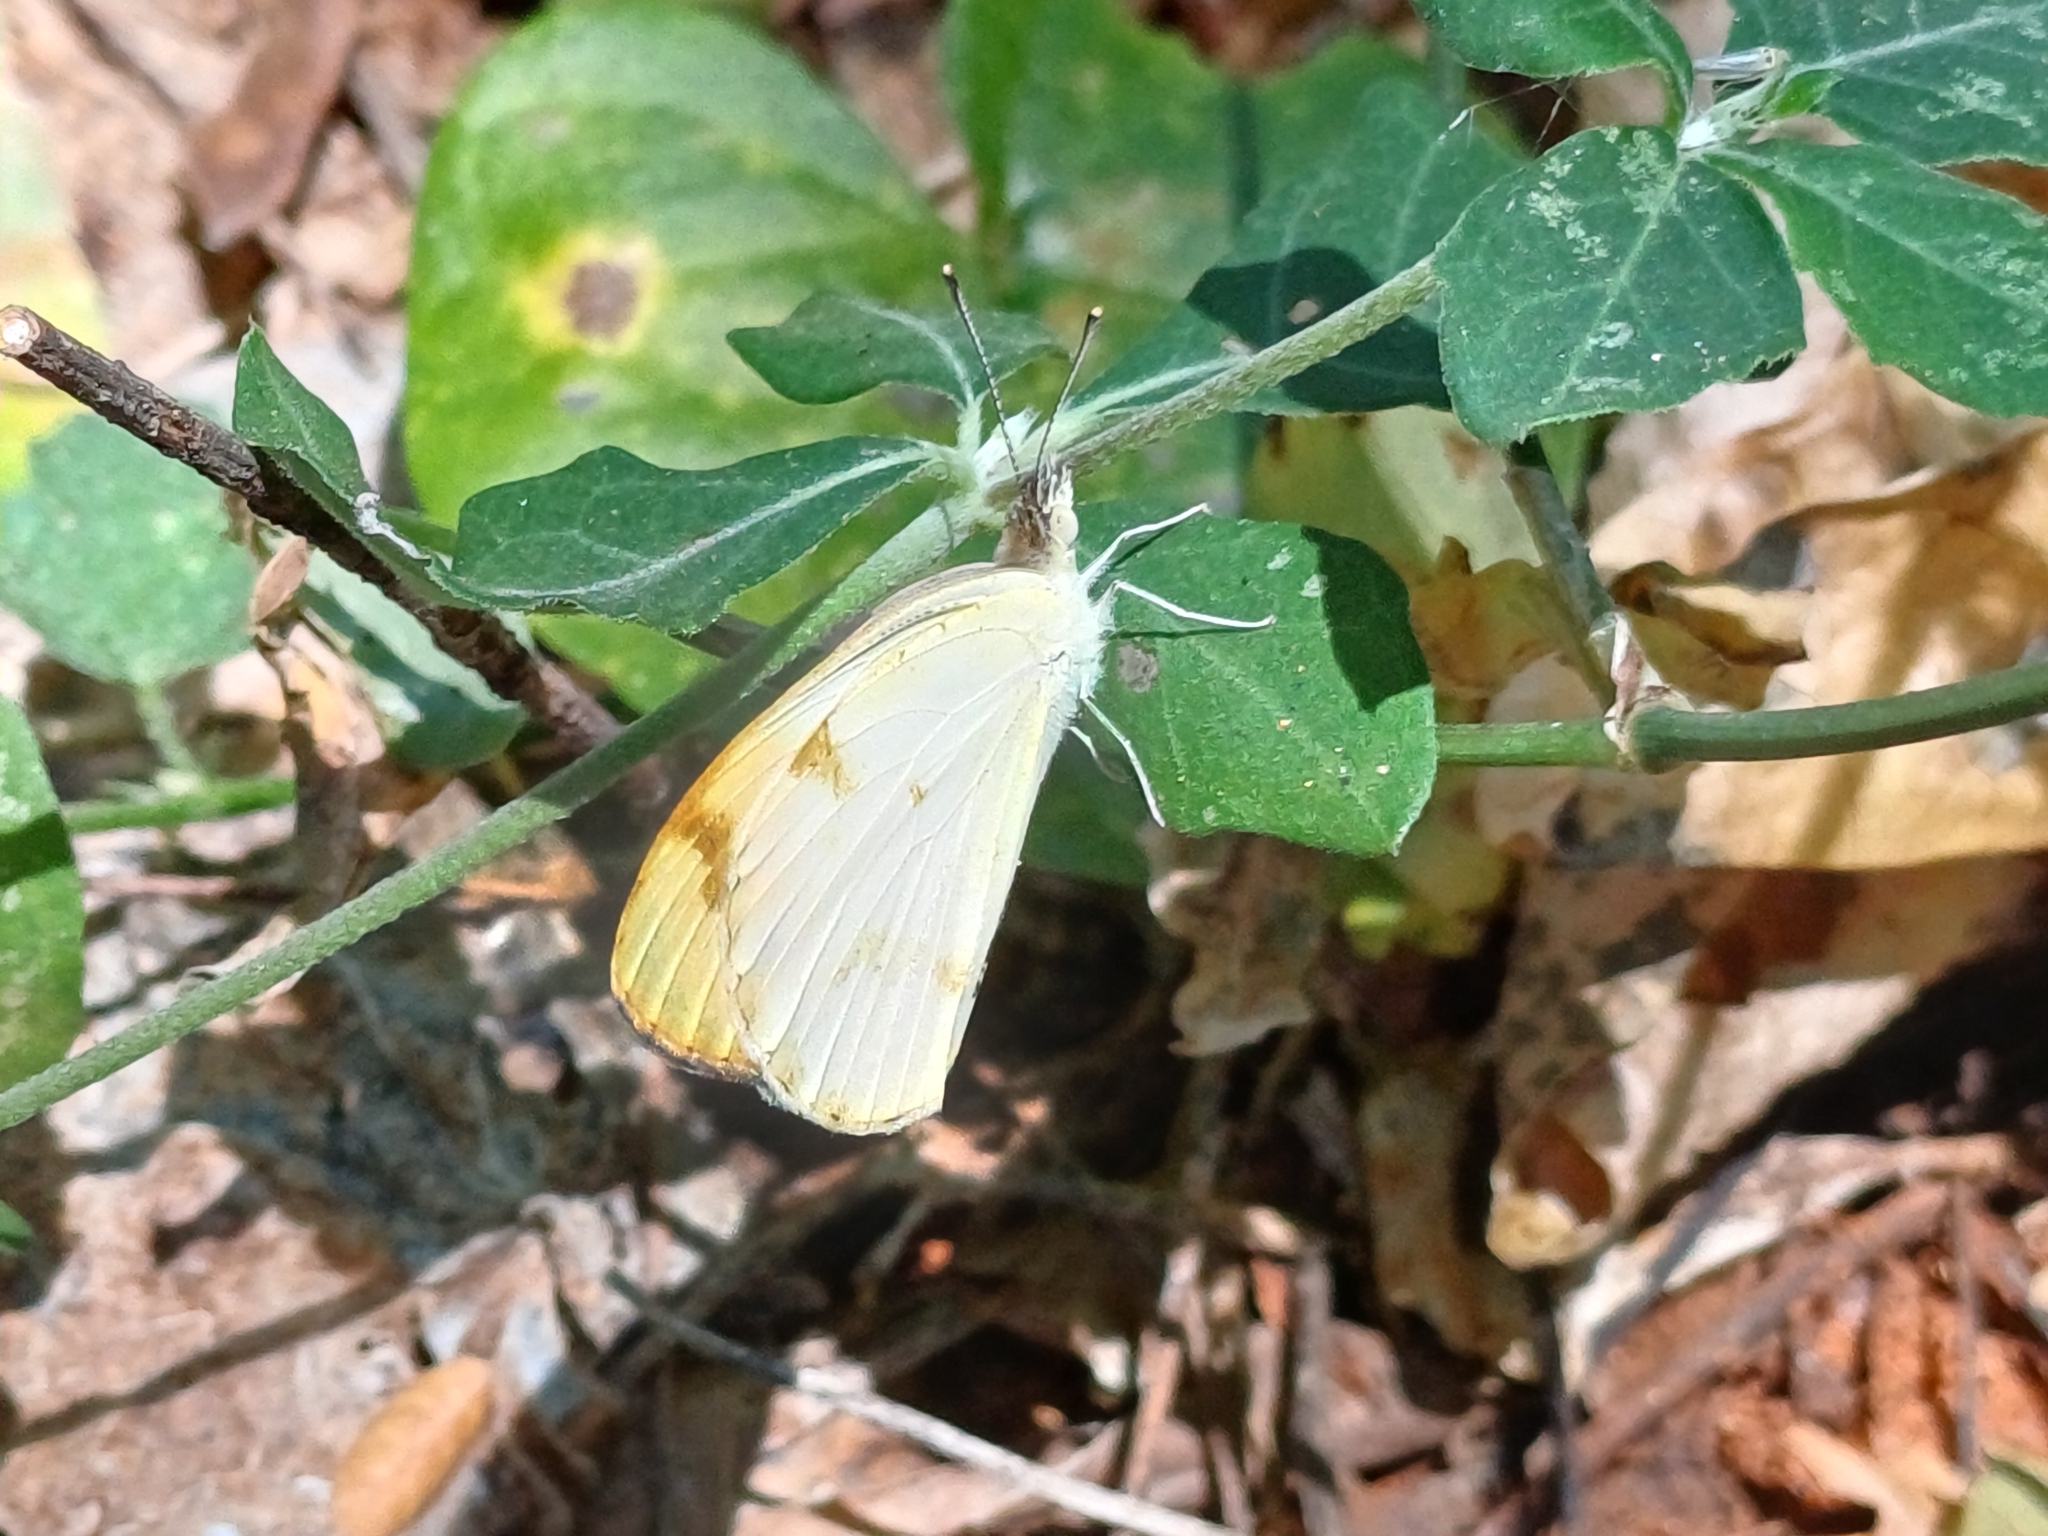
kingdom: Animalia
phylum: Arthropoda
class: Insecta
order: Lepidoptera
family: Pieridae
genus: Colotis
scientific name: Colotis aurora
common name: Plain orange-tip
